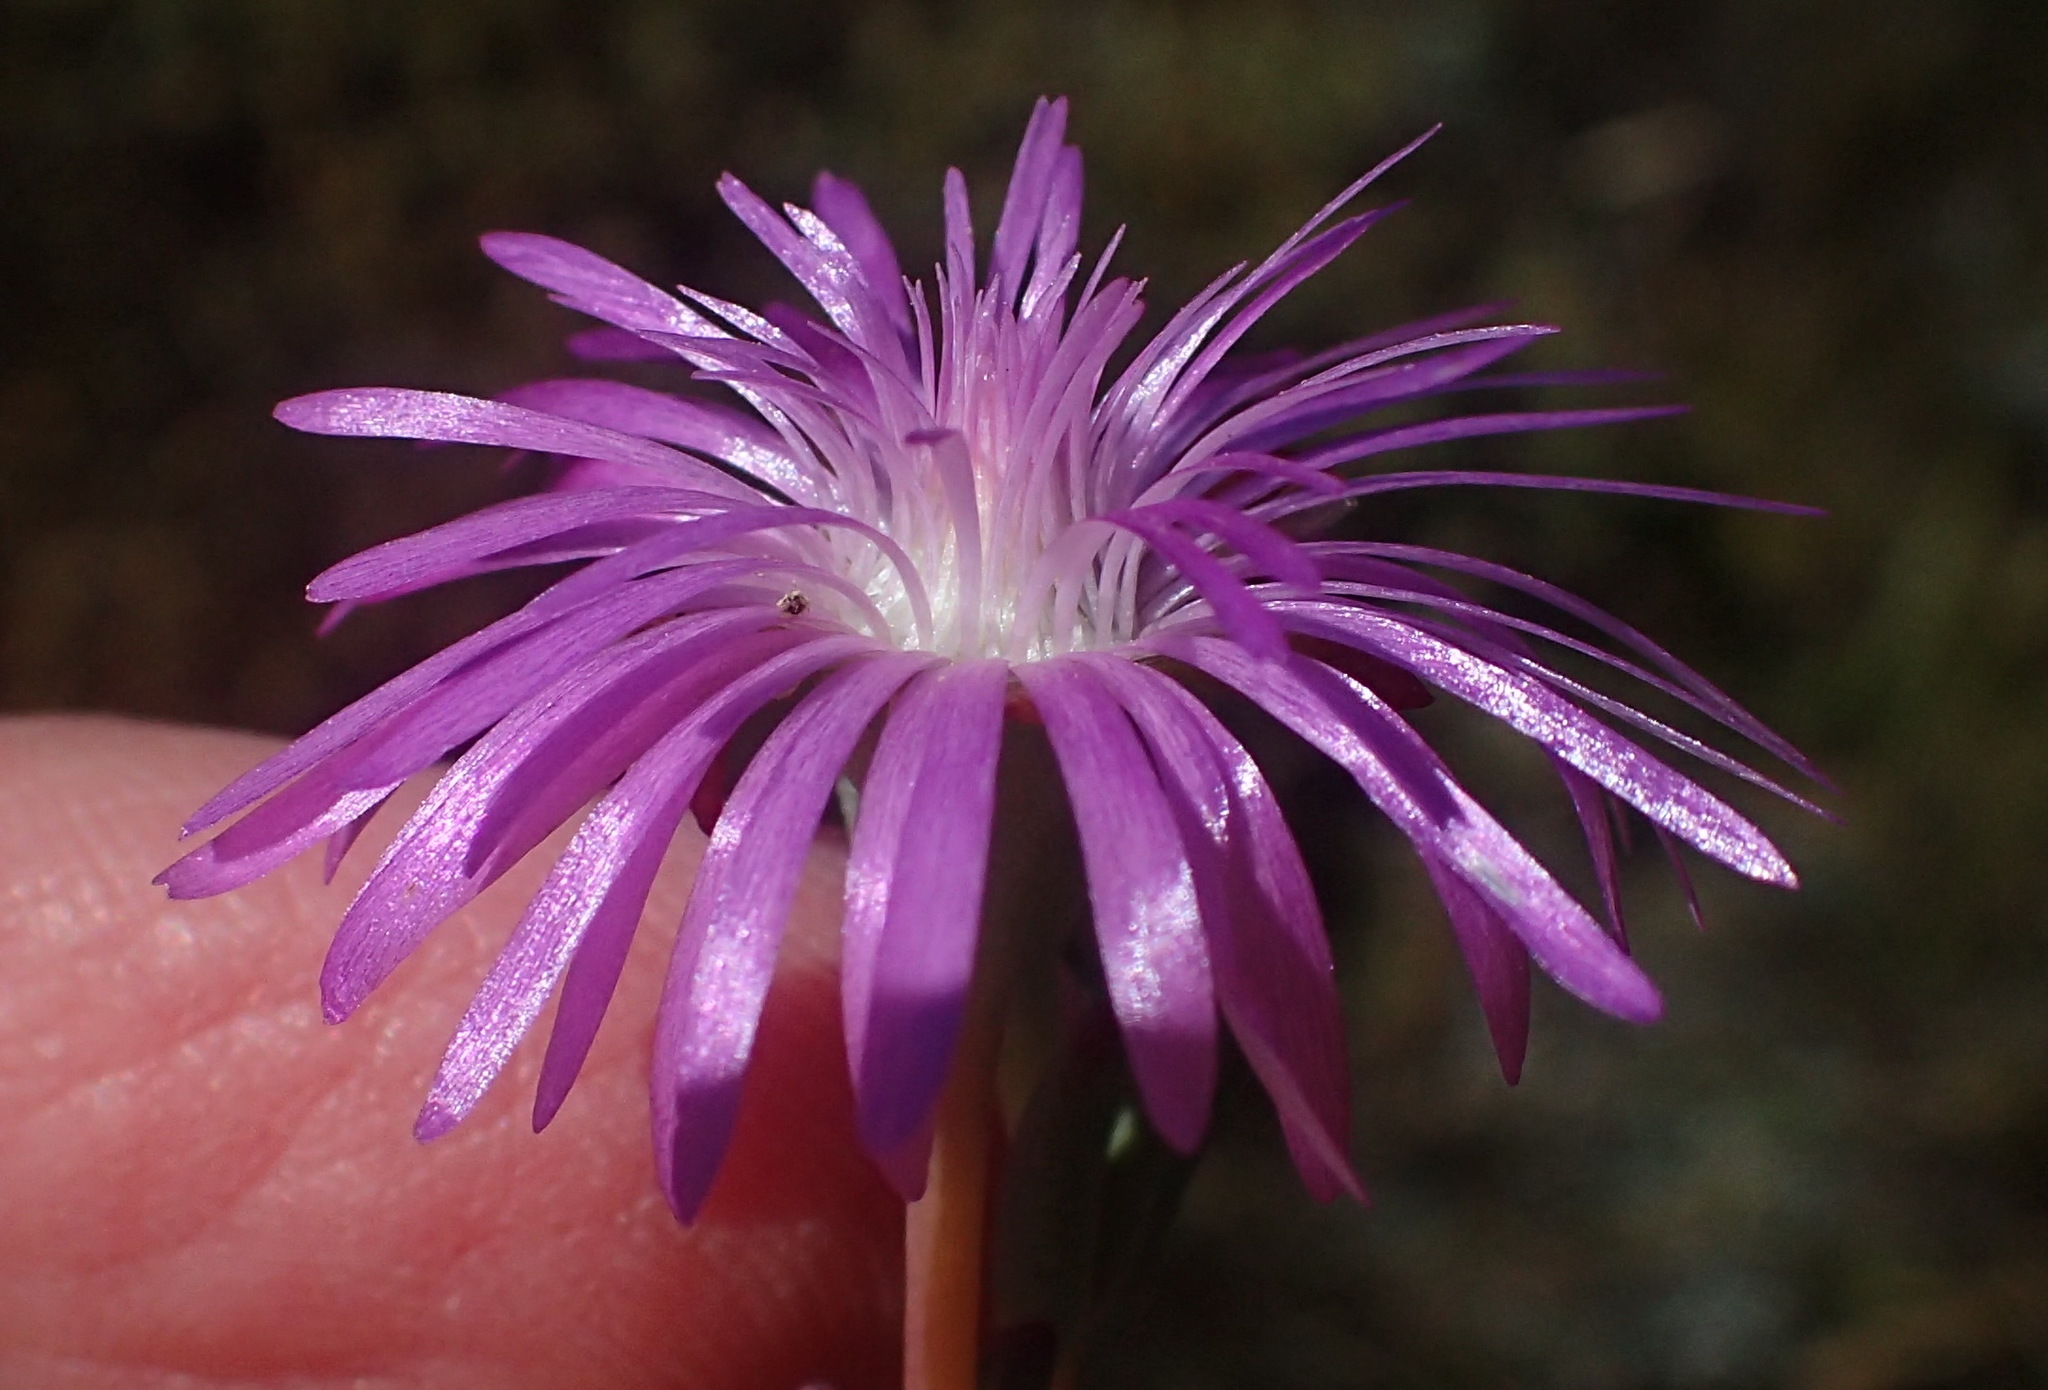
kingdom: Plantae
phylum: Tracheophyta
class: Magnoliopsida
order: Caryophyllales
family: Aizoaceae
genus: Lampranthus
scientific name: Lampranthus swartbergensis
